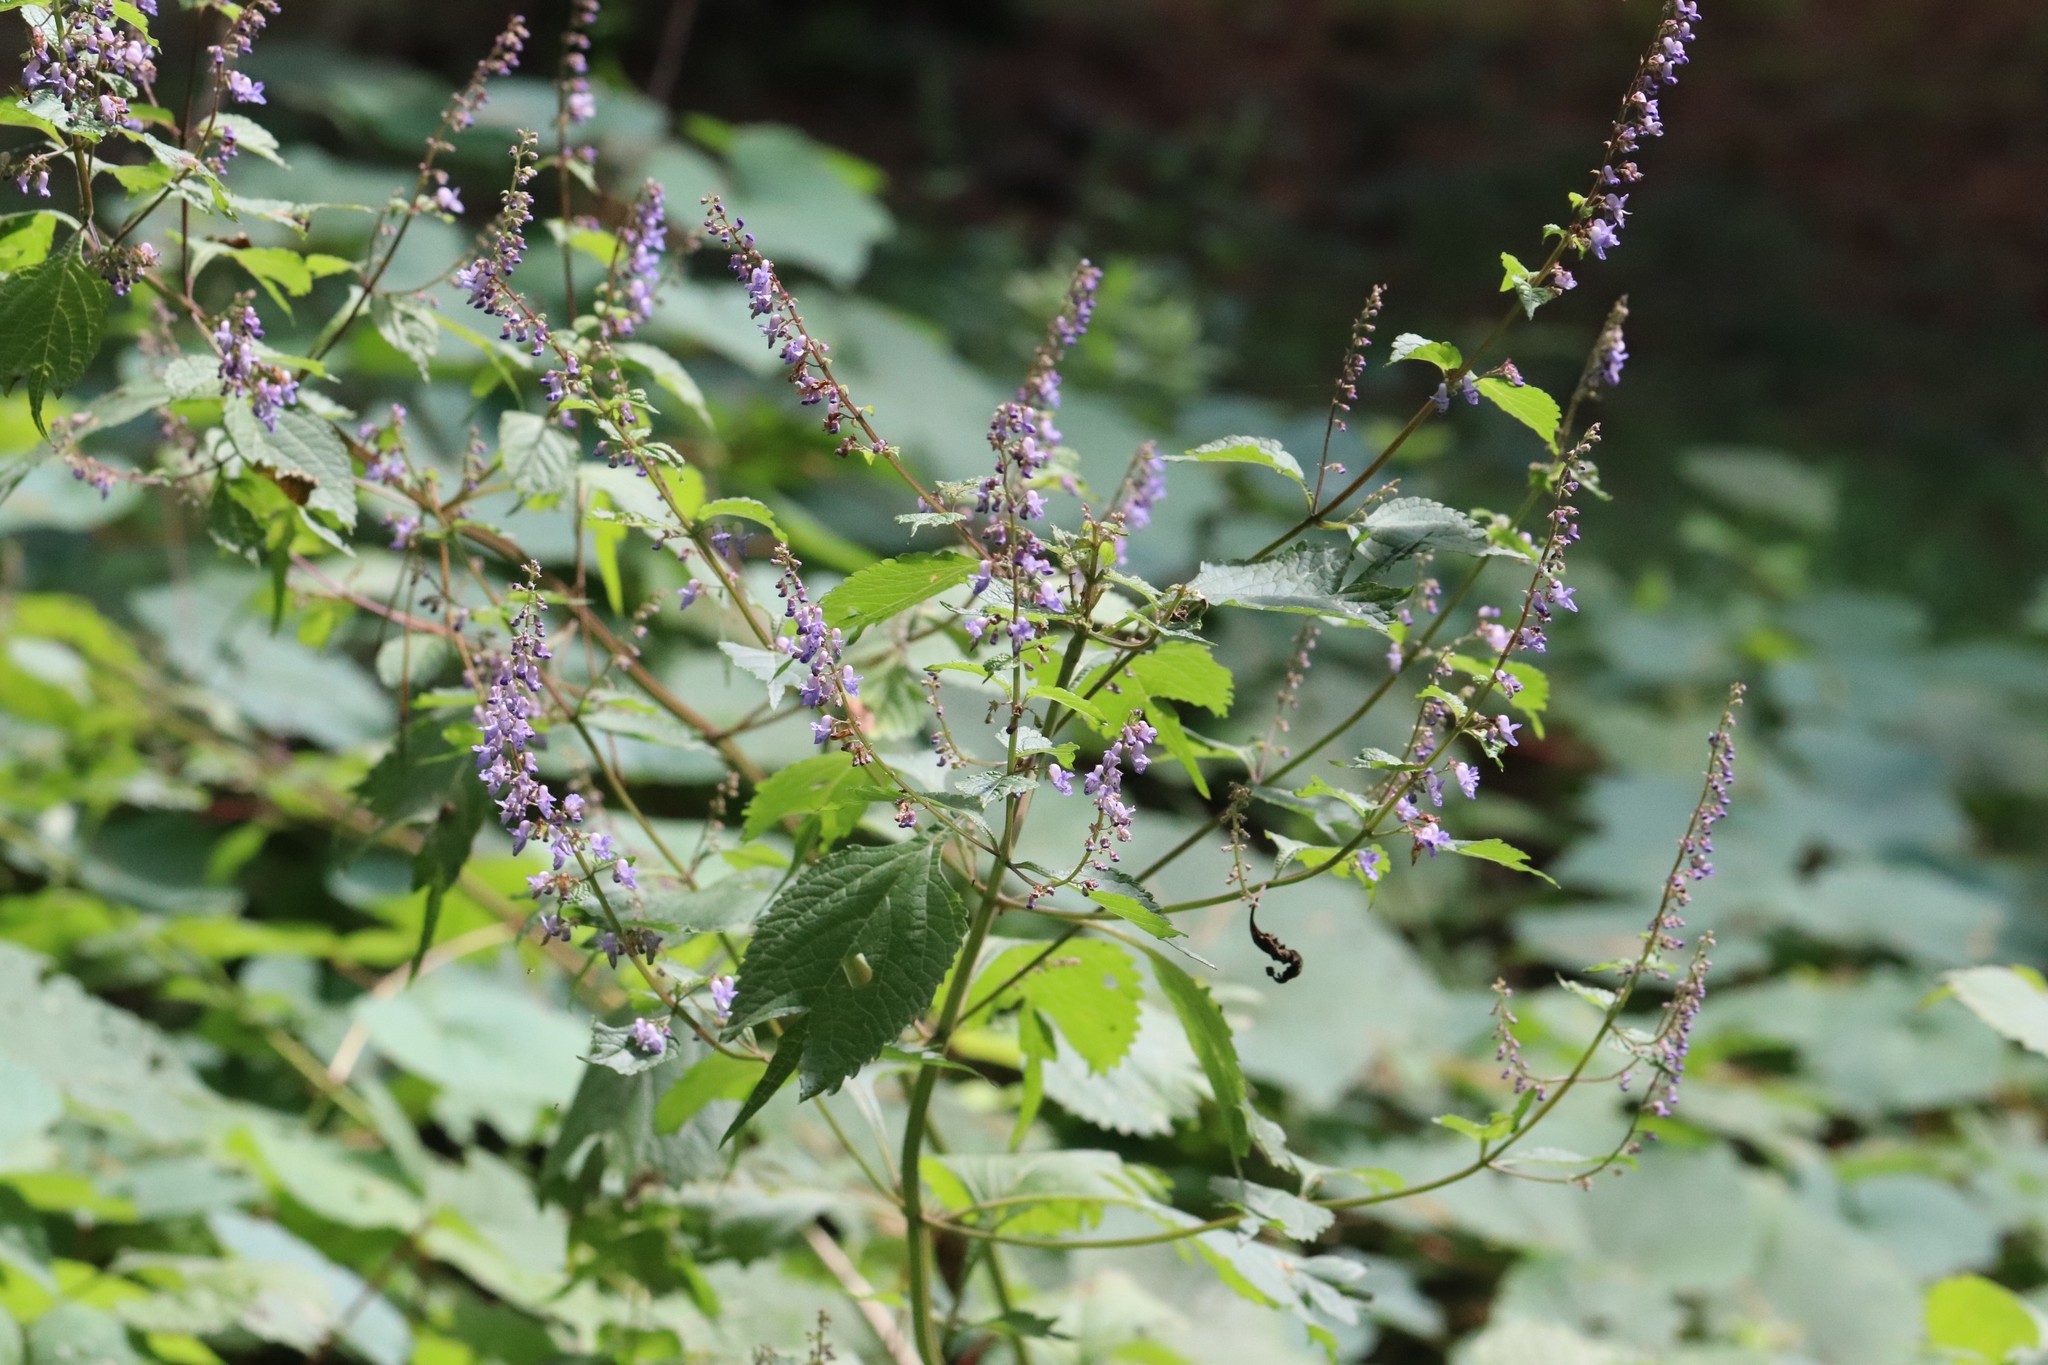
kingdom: Plantae
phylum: Tracheophyta
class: Magnoliopsida
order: Lamiales
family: Lamiaceae
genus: Isodon
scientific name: Isodon excisus
